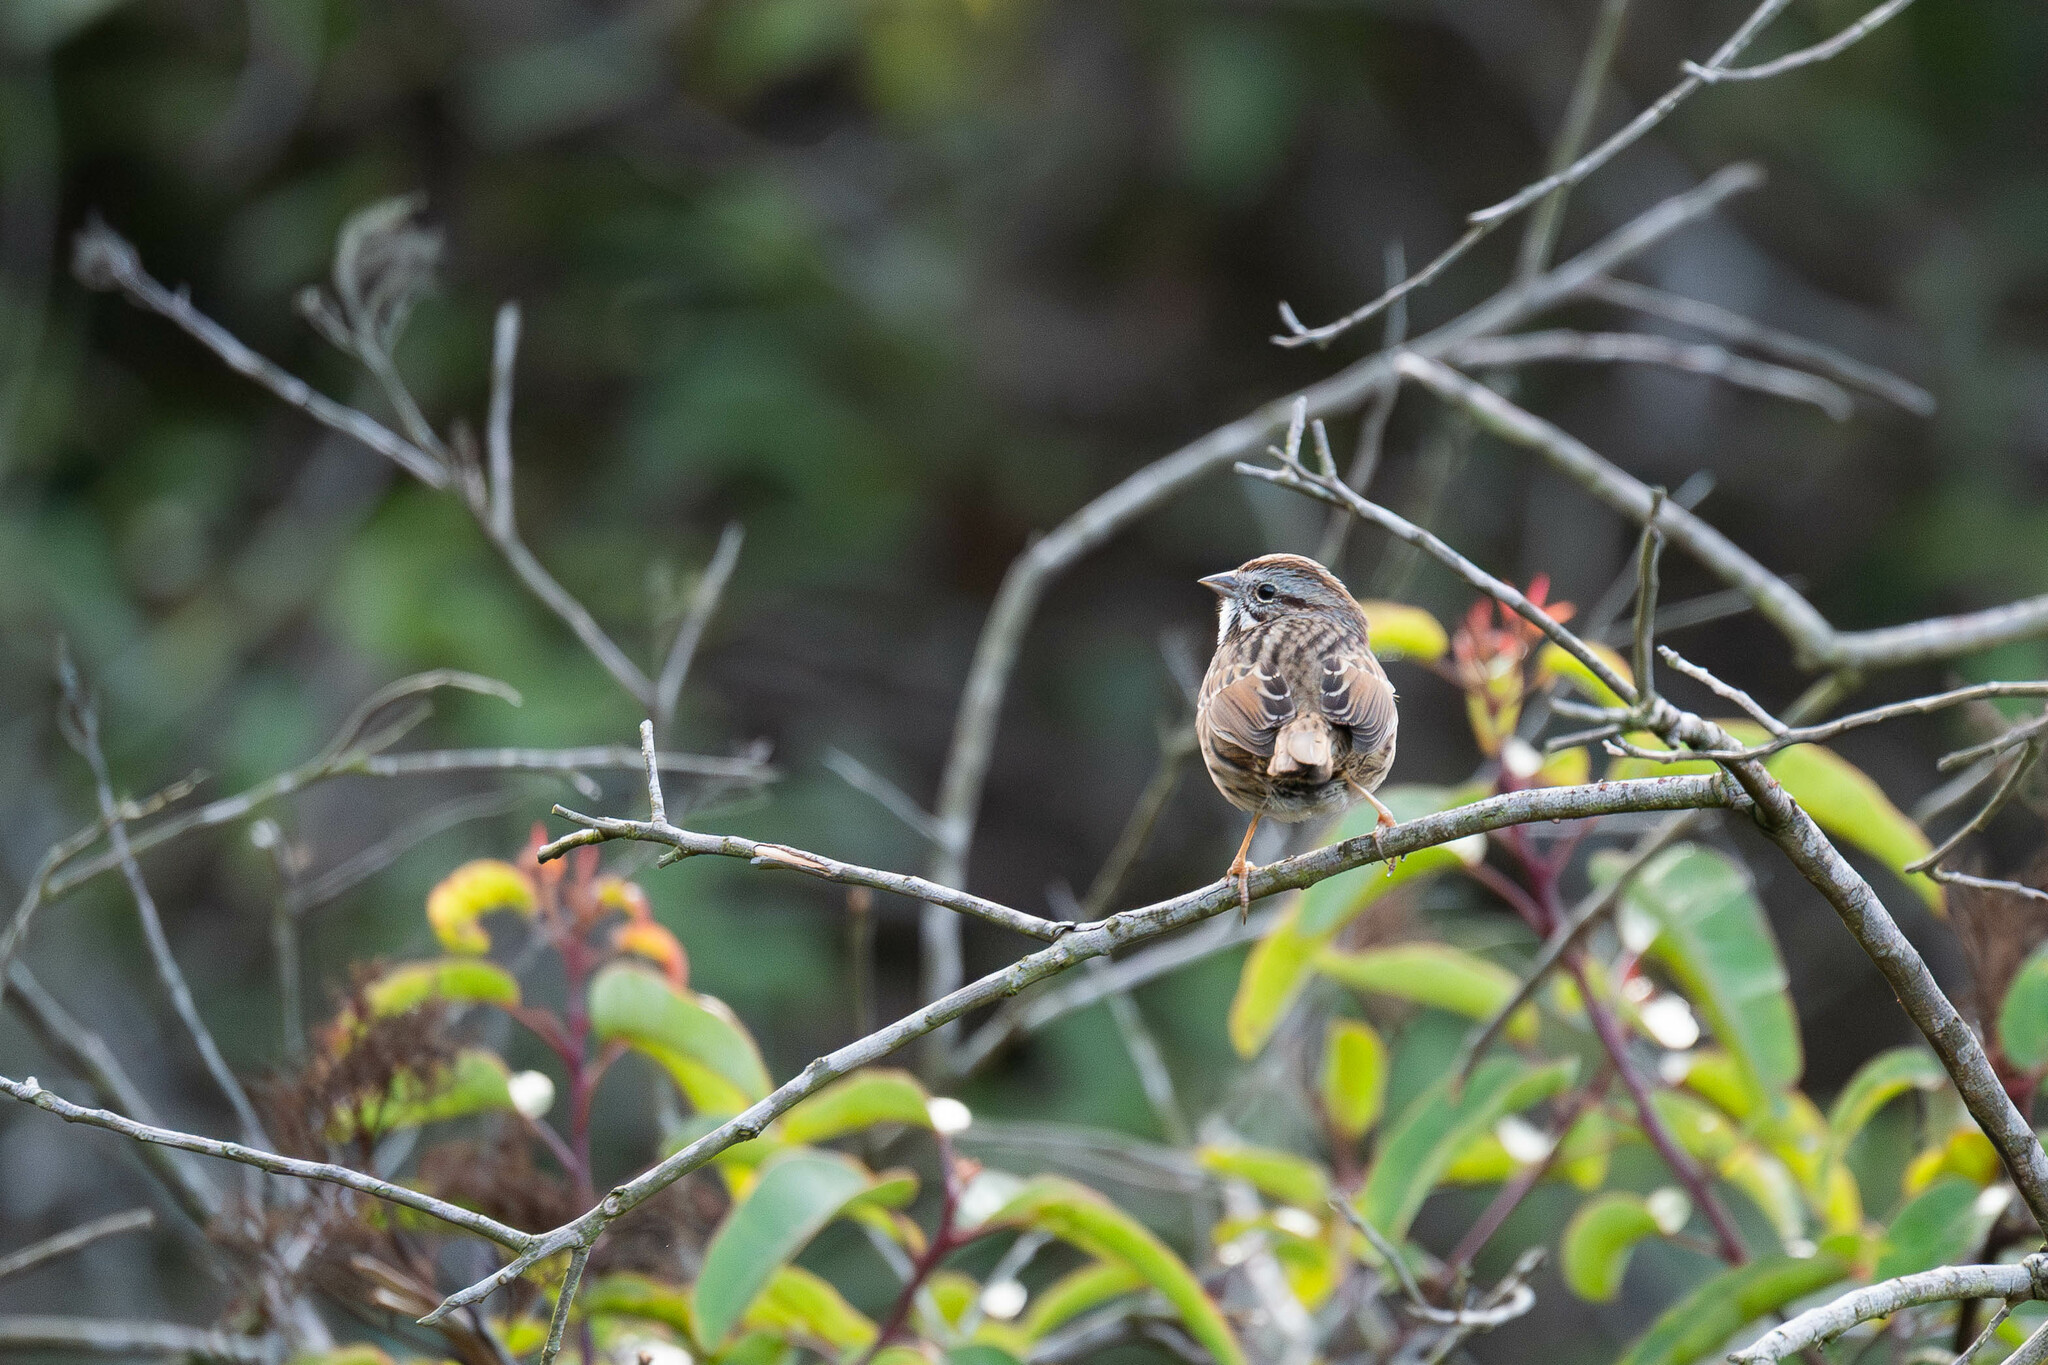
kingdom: Animalia
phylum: Chordata
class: Aves
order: Passeriformes
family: Passerellidae
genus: Melospiza
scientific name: Melospiza melodia
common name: Song sparrow
